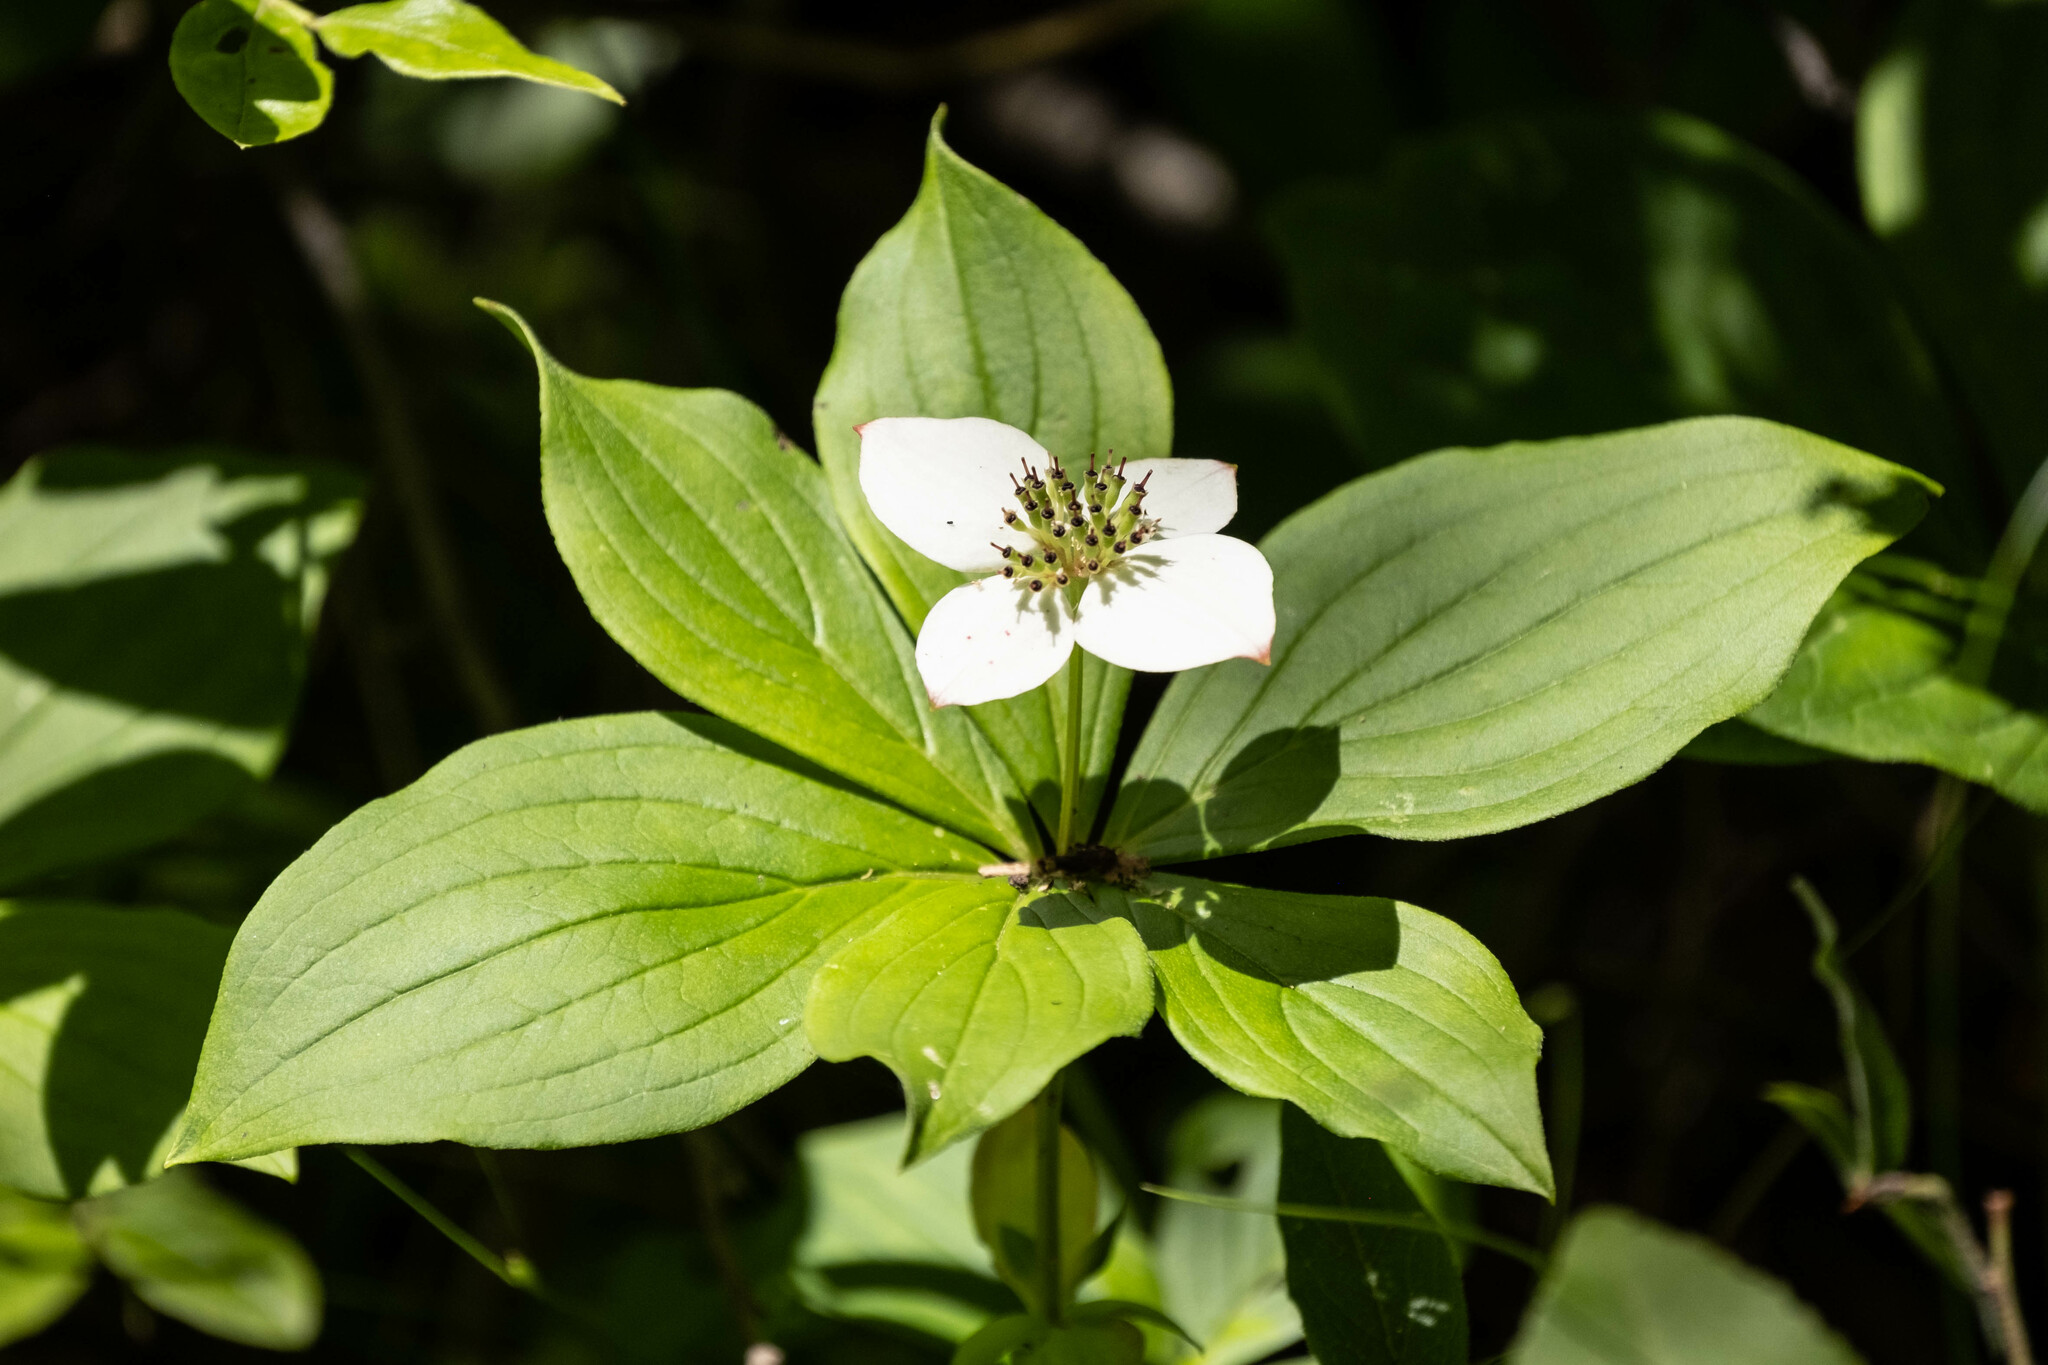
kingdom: Plantae
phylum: Tracheophyta
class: Magnoliopsida
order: Cornales
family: Cornaceae
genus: Cornus
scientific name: Cornus canadensis
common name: Creeping dogwood
